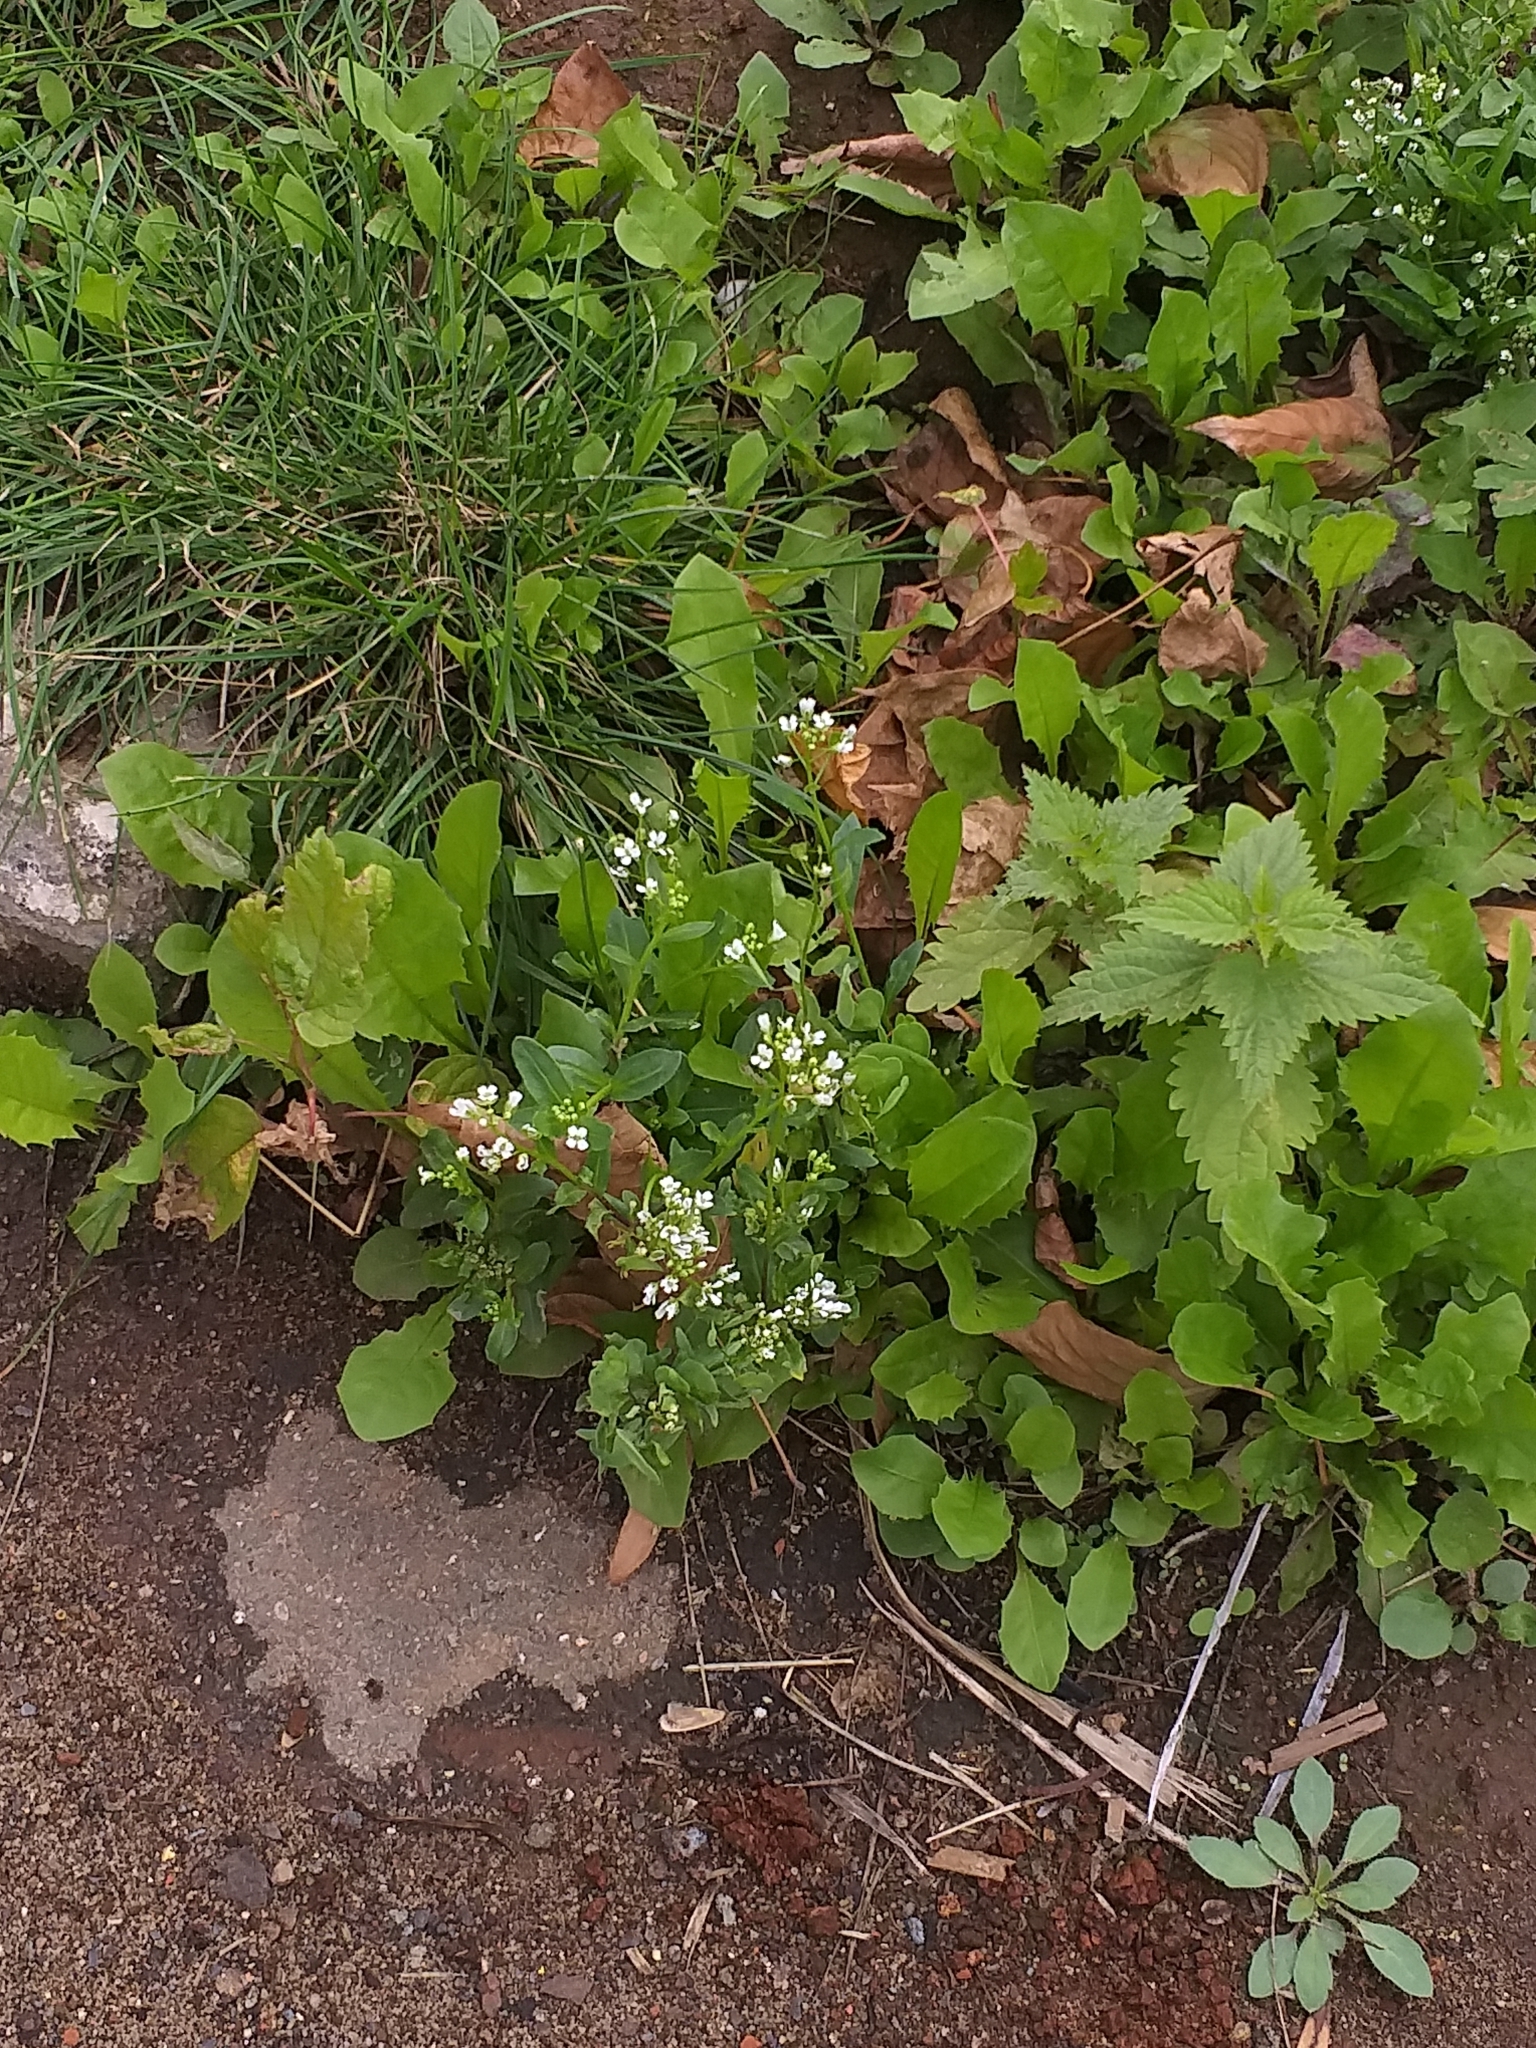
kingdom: Plantae
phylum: Tracheophyta
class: Magnoliopsida
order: Brassicales
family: Brassicaceae
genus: Thlaspi
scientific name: Thlaspi arvense
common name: Field pennycress
